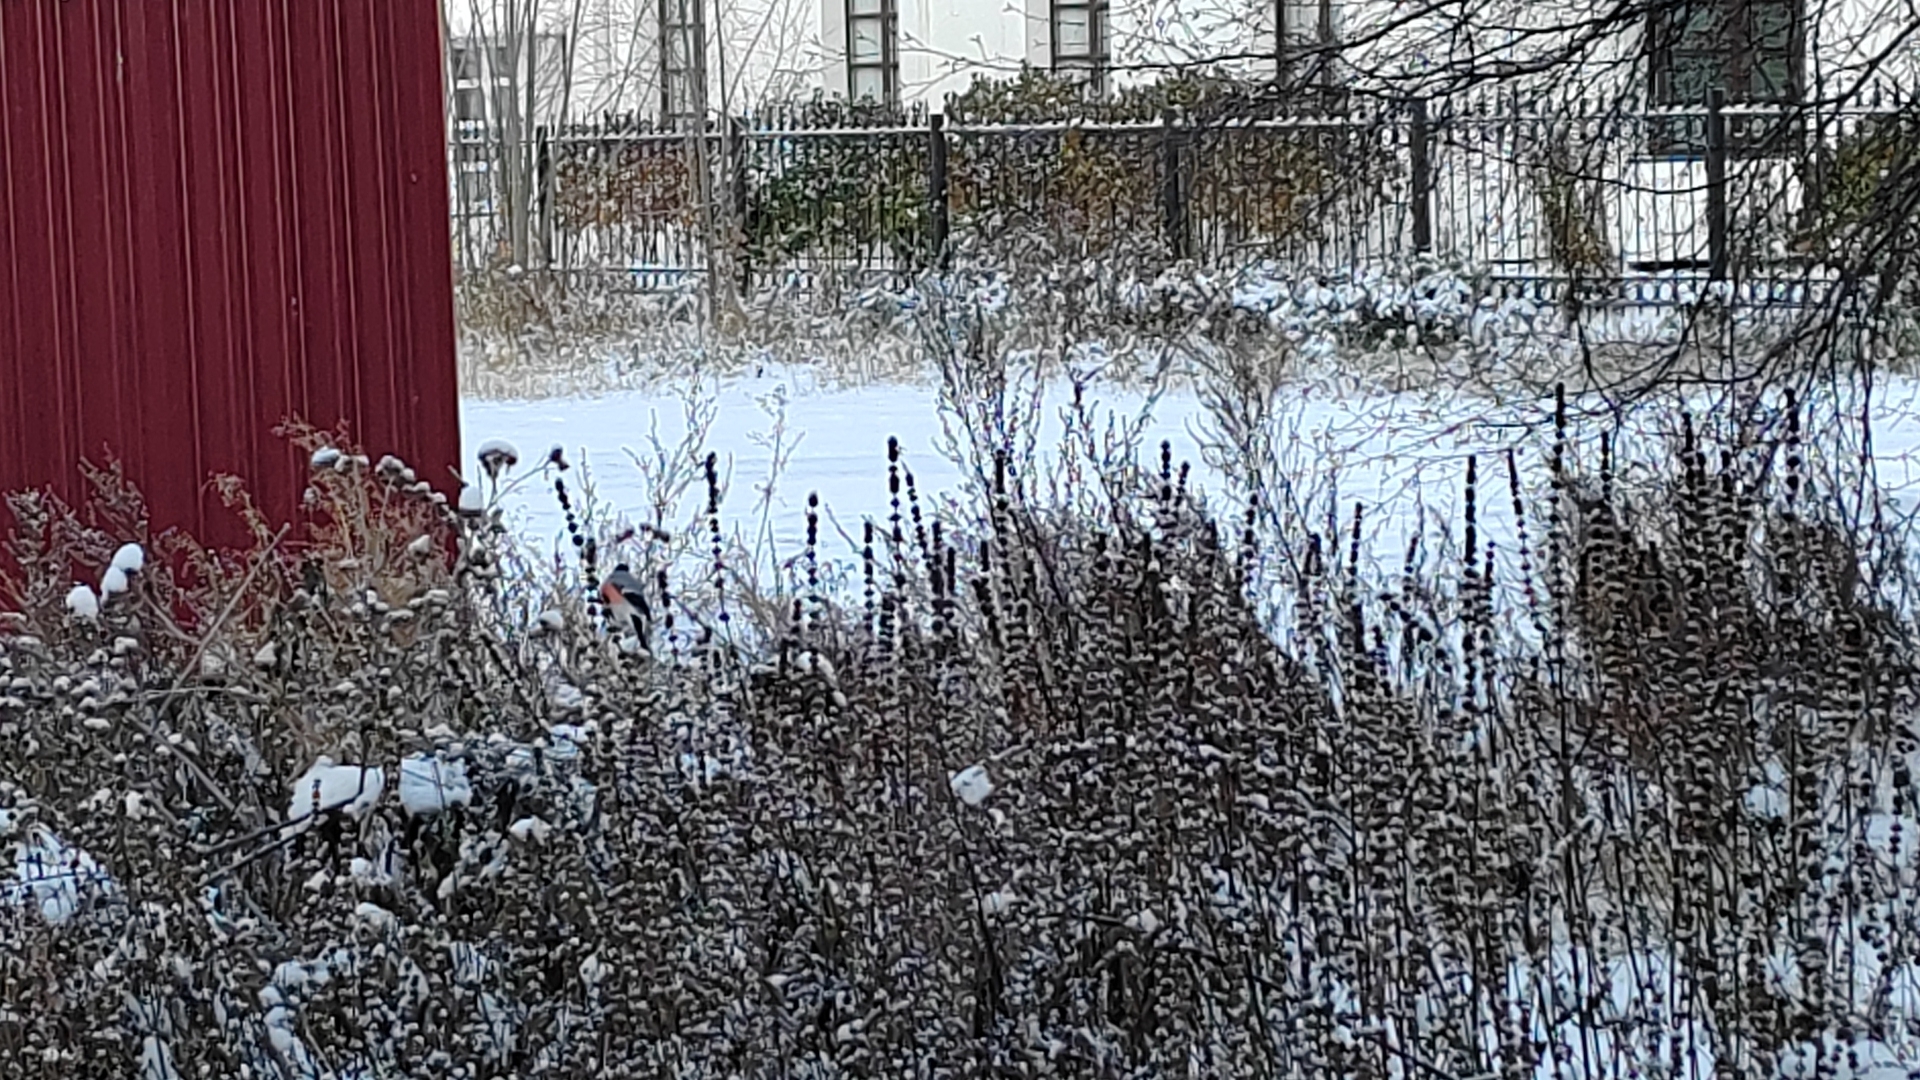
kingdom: Animalia
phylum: Chordata
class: Aves
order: Passeriformes
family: Fringillidae
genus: Pyrrhula
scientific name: Pyrrhula pyrrhula
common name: Eurasian bullfinch
